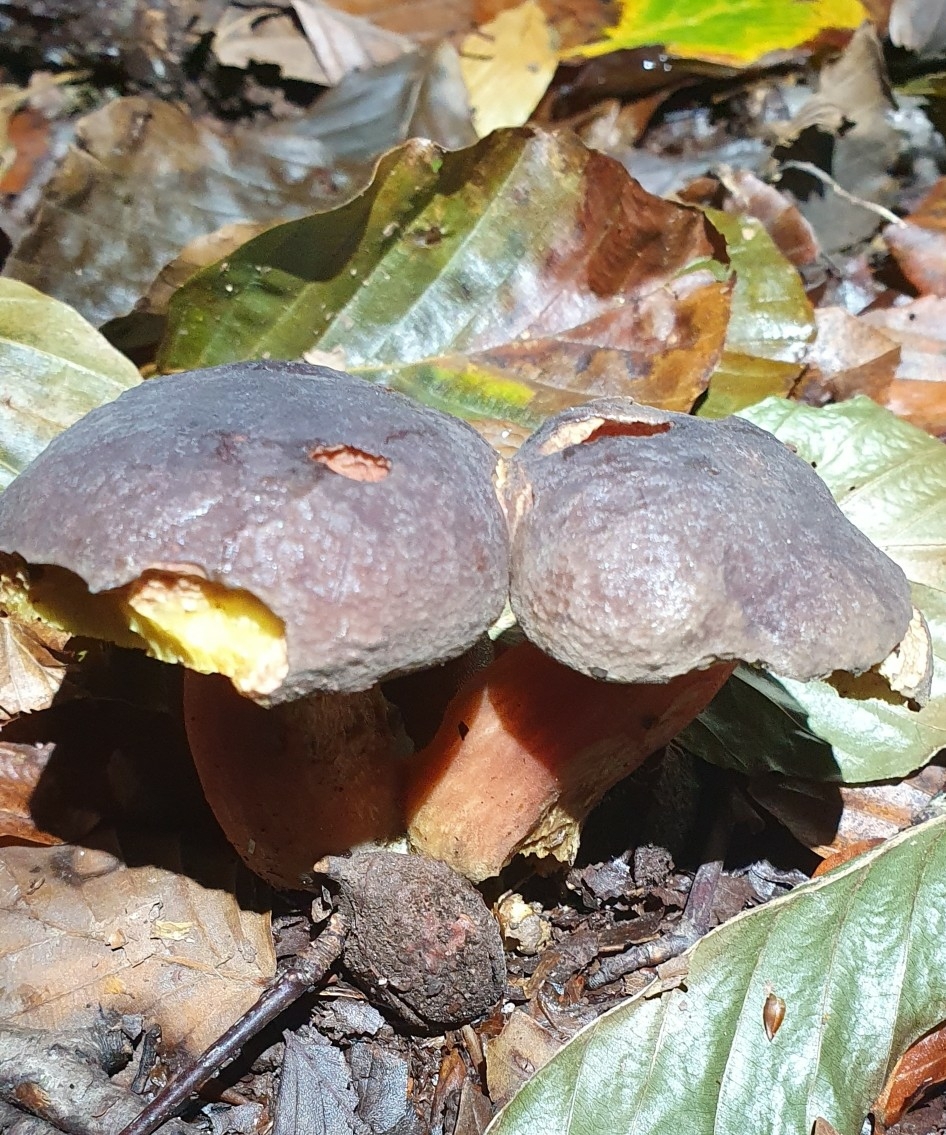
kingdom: Fungi
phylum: Basidiomycota
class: Agaricomycetes
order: Boletales
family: Boletaceae
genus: Xerocomellus
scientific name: Xerocomellus pruinatus
